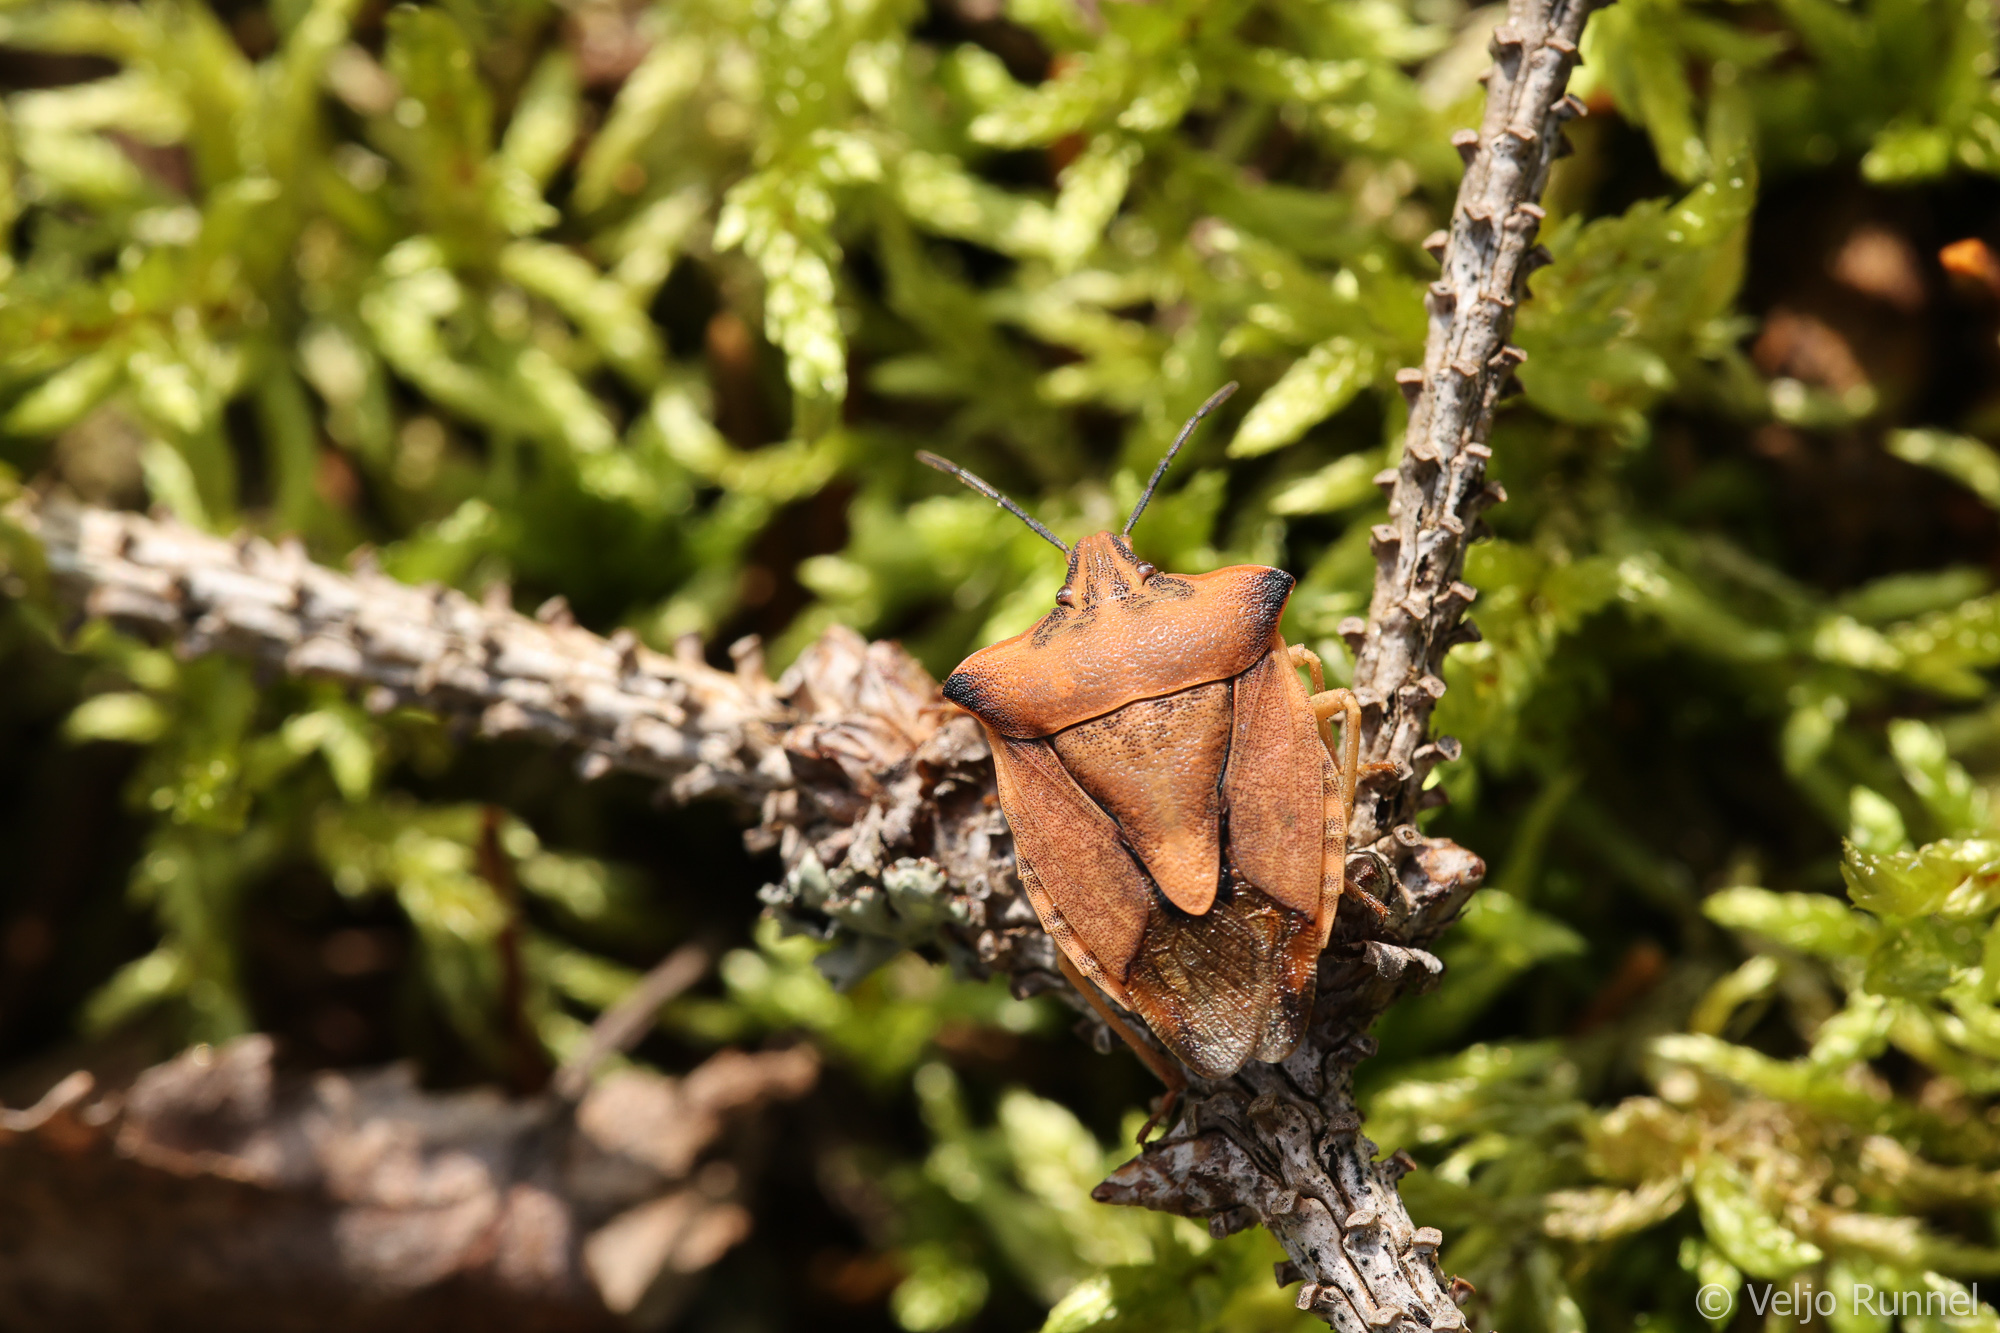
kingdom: Animalia
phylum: Arthropoda
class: Insecta
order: Hemiptera
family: Pentatomidae
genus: Carpocoris
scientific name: Carpocoris fuscispinus
